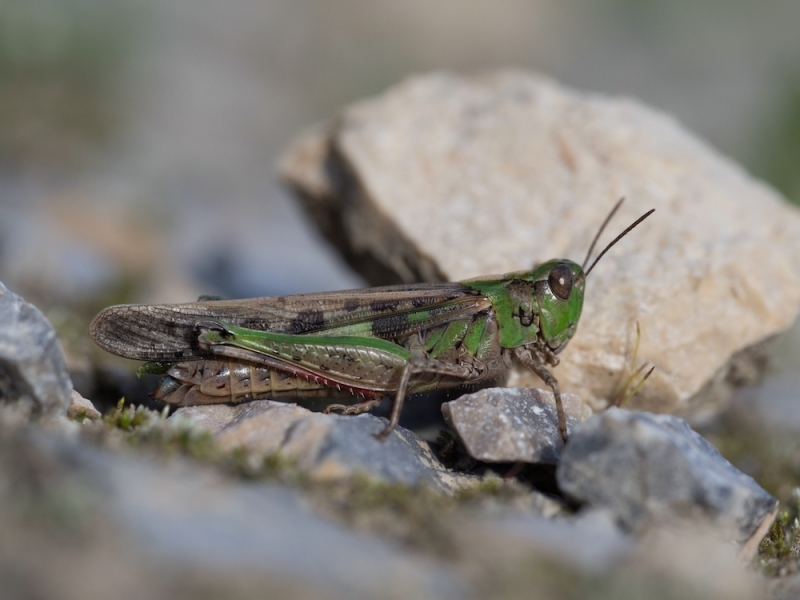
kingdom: Animalia
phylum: Arthropoda
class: Insecta
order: Orthoptera
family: Acrididae
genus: Aiolopus
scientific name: Aiolopus thalassinus
